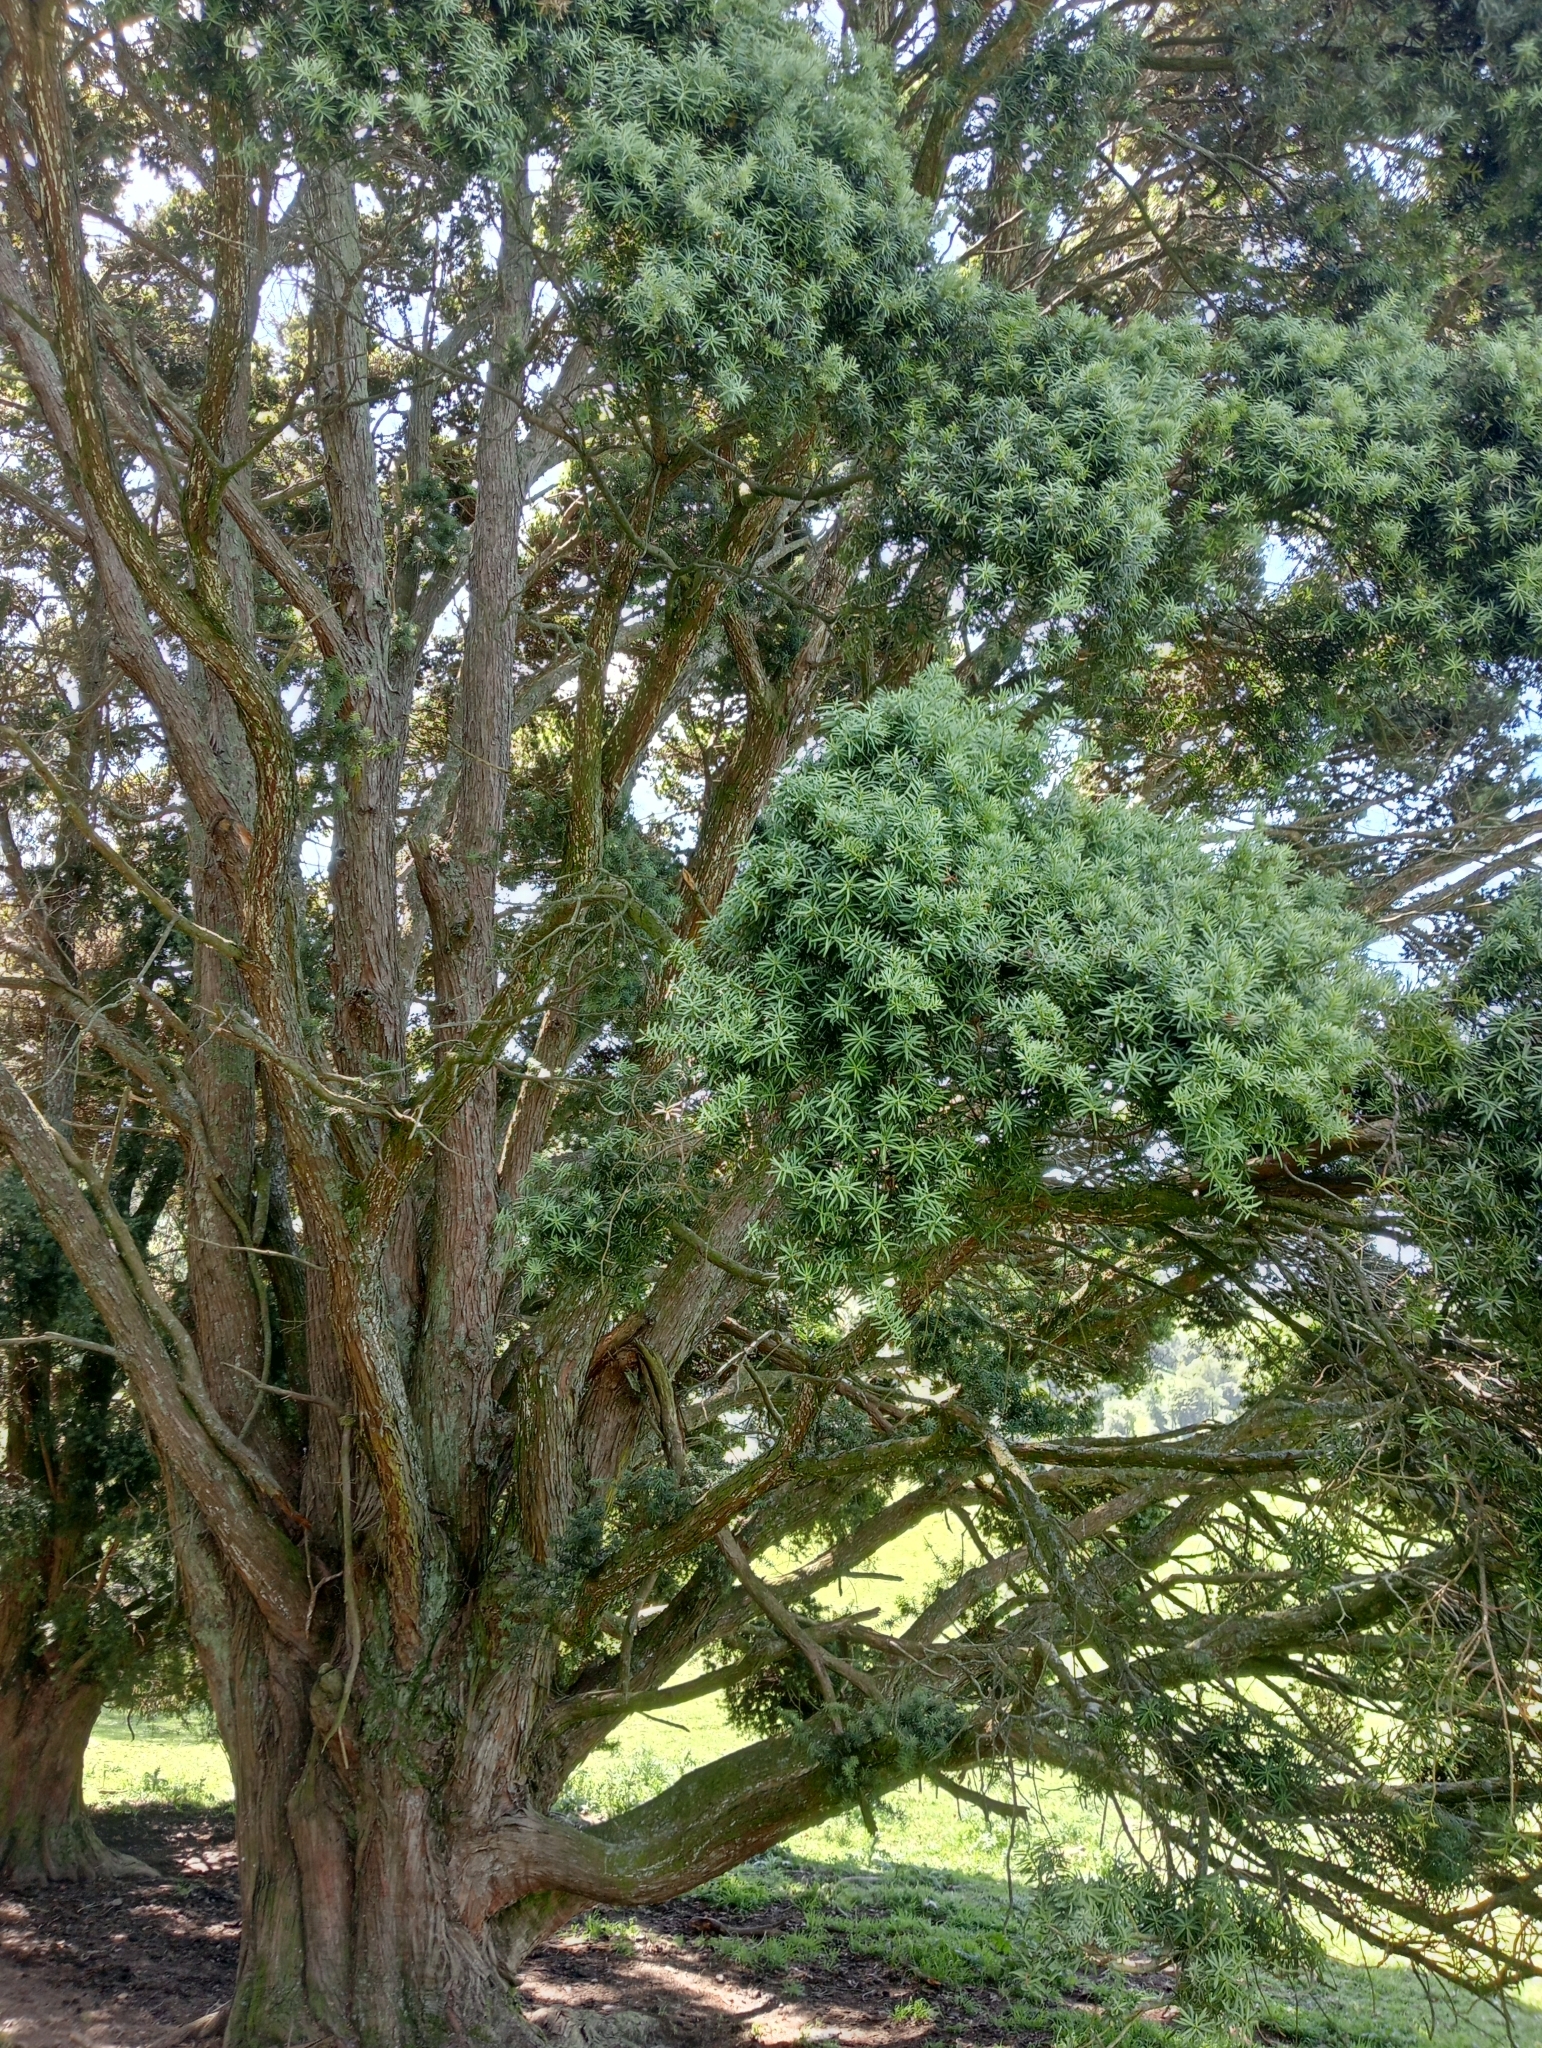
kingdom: Plantae
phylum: Tracheophyta
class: Pinopsida
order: Pinales
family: Podocarpaceae
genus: Podocarpus
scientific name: Podocarpus totara
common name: Totara
